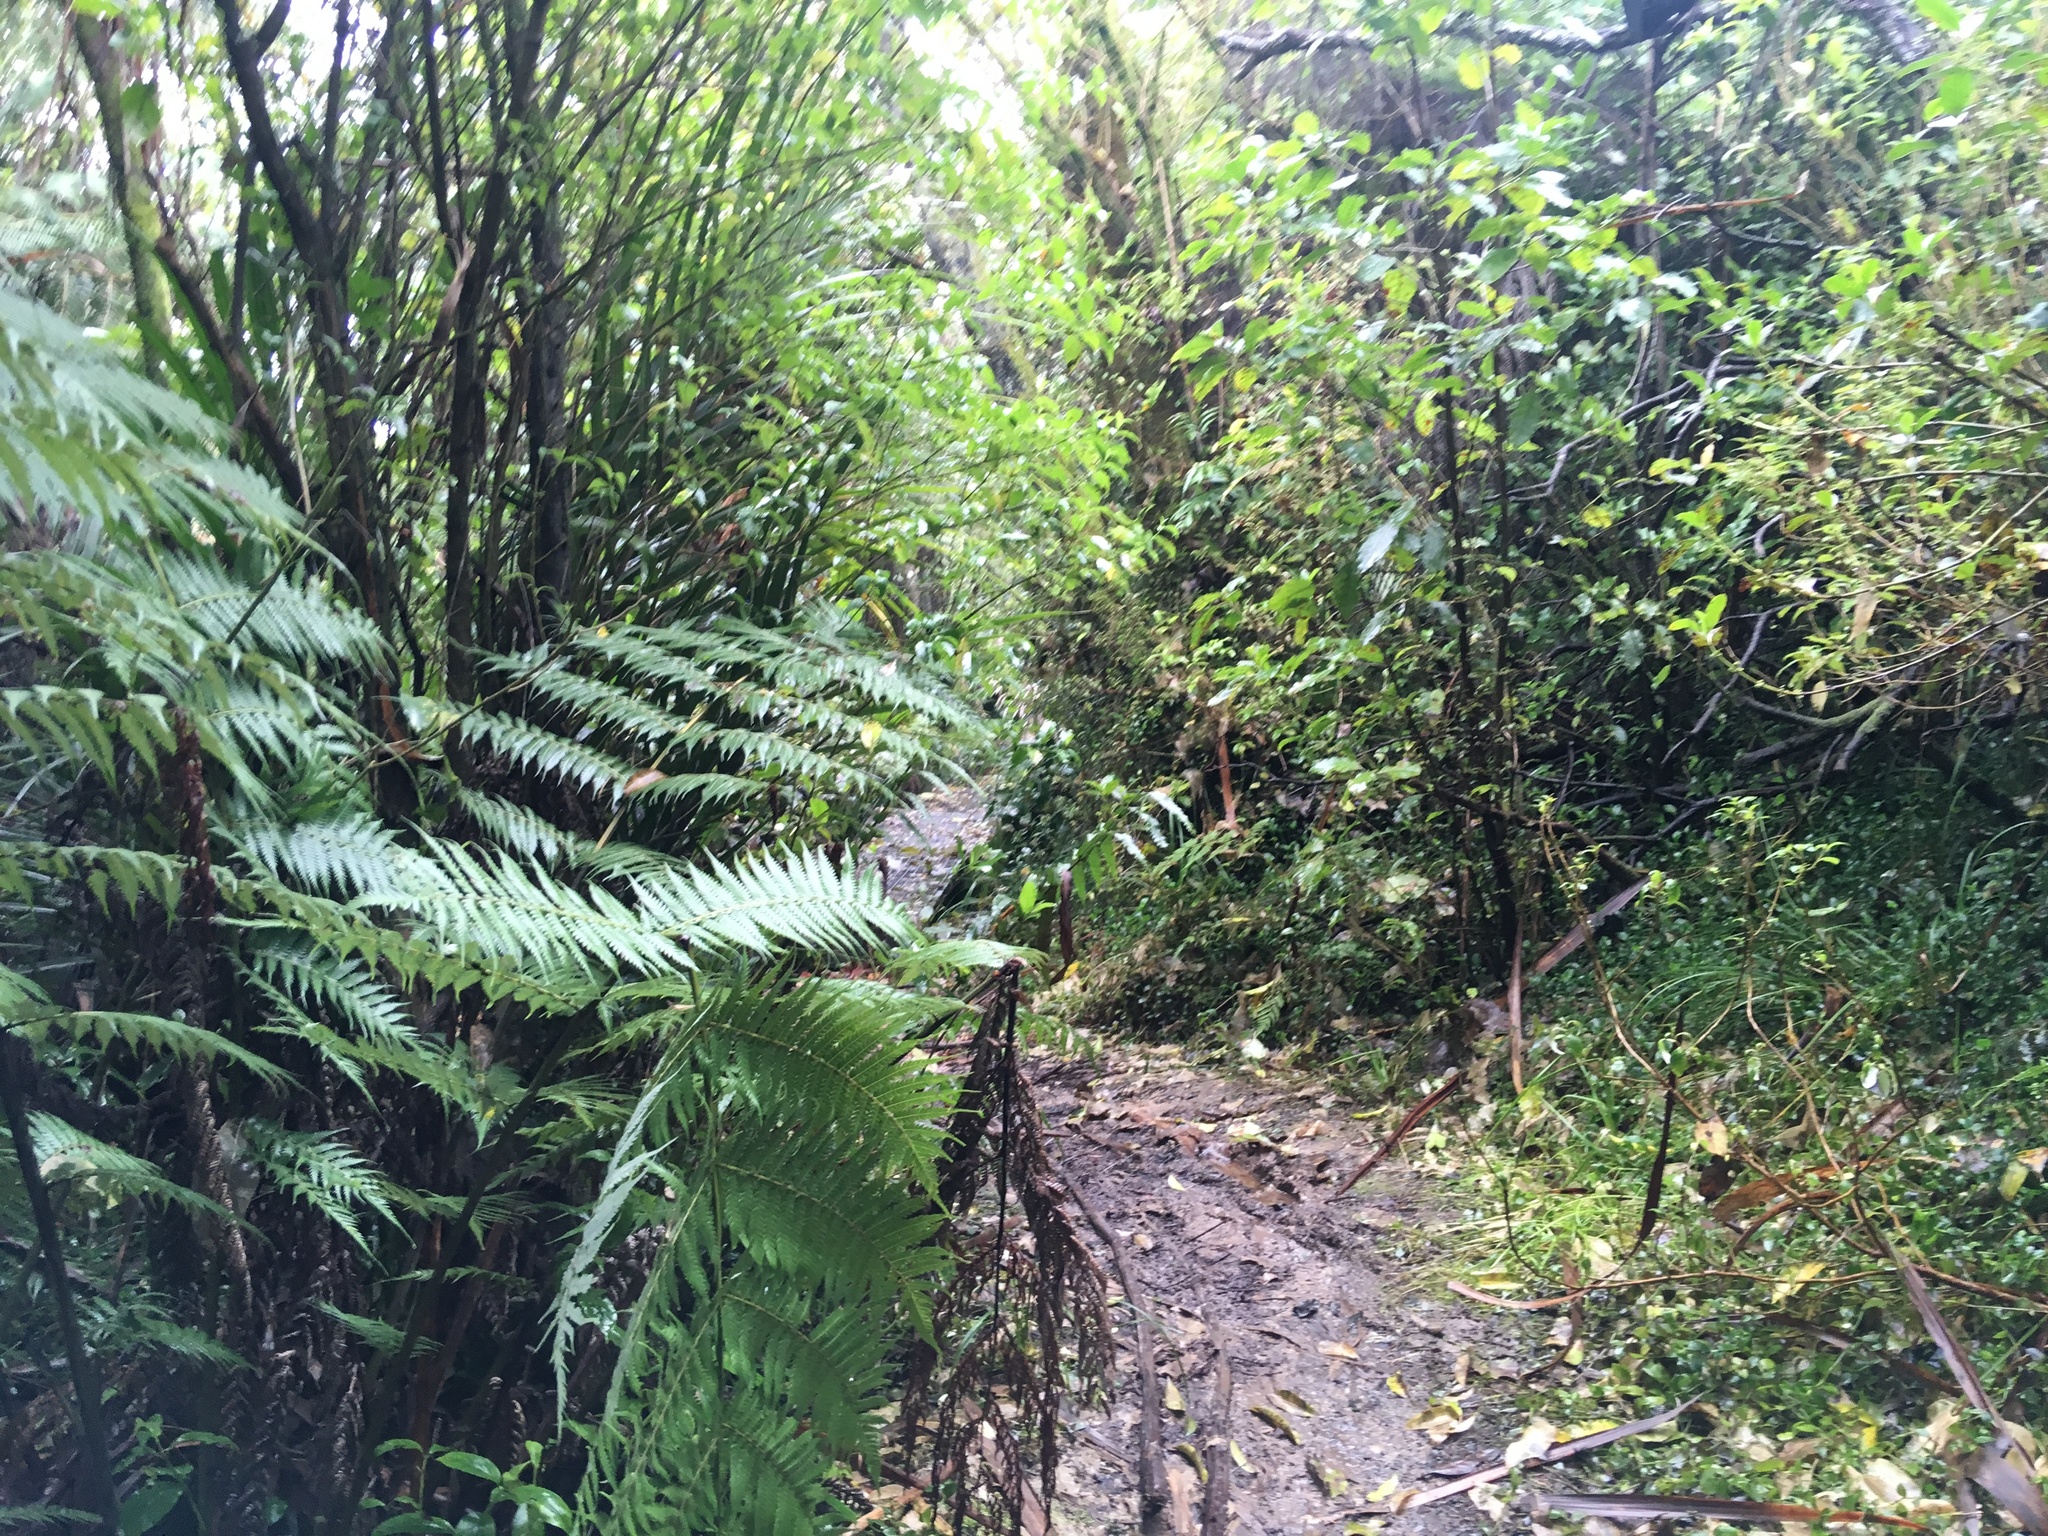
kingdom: Plantae
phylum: Tracheophyta
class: Polypodiopsida
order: Cyatheales
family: Cyatheaceae
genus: Sphaeropteris
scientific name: Sphaeropteris medullaris
